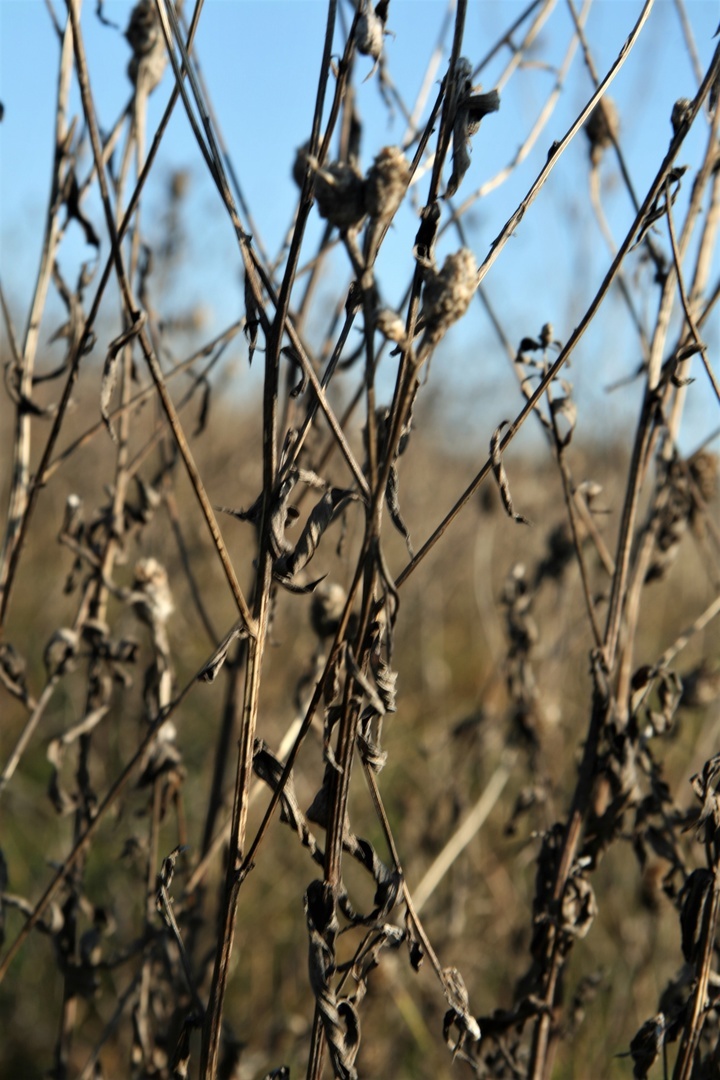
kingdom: Plantae
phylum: Tracheophyta
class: Magnoliopsida
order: Asterales
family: Asteraceae
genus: Centaurea
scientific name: Centaurea jacea
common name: Brown knapweed
